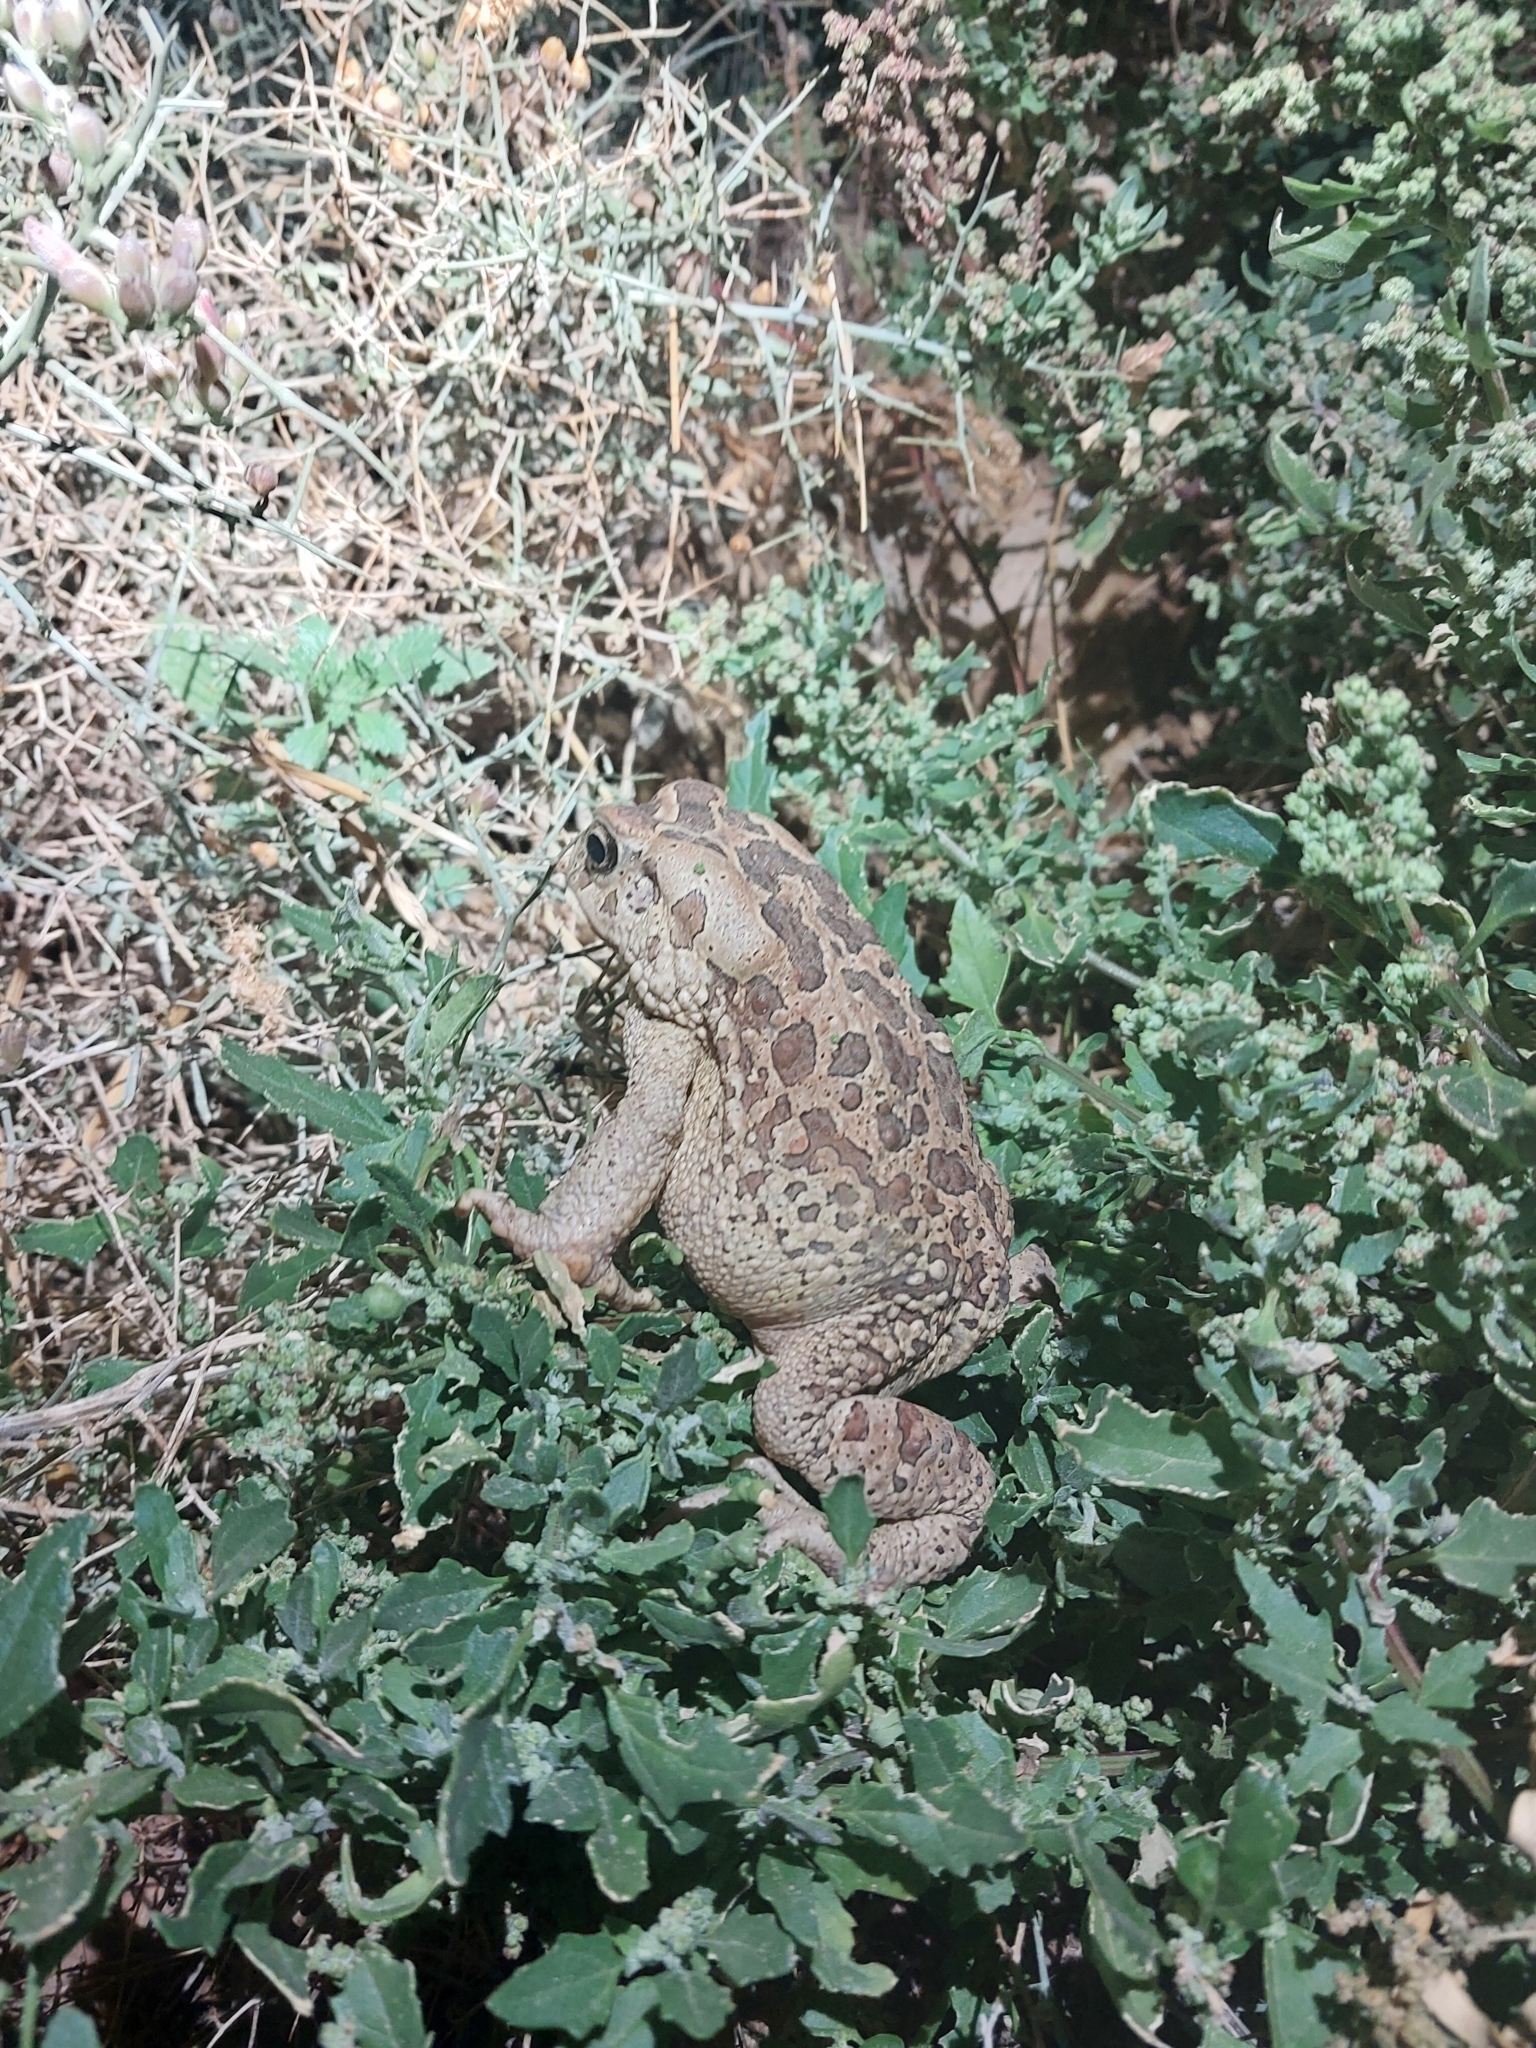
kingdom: Animalia
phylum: Chordata
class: Amphibia
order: Anura
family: Bufonidae
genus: Sclerophrys
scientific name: Sclerophrys mauritanica
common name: Berber toad
